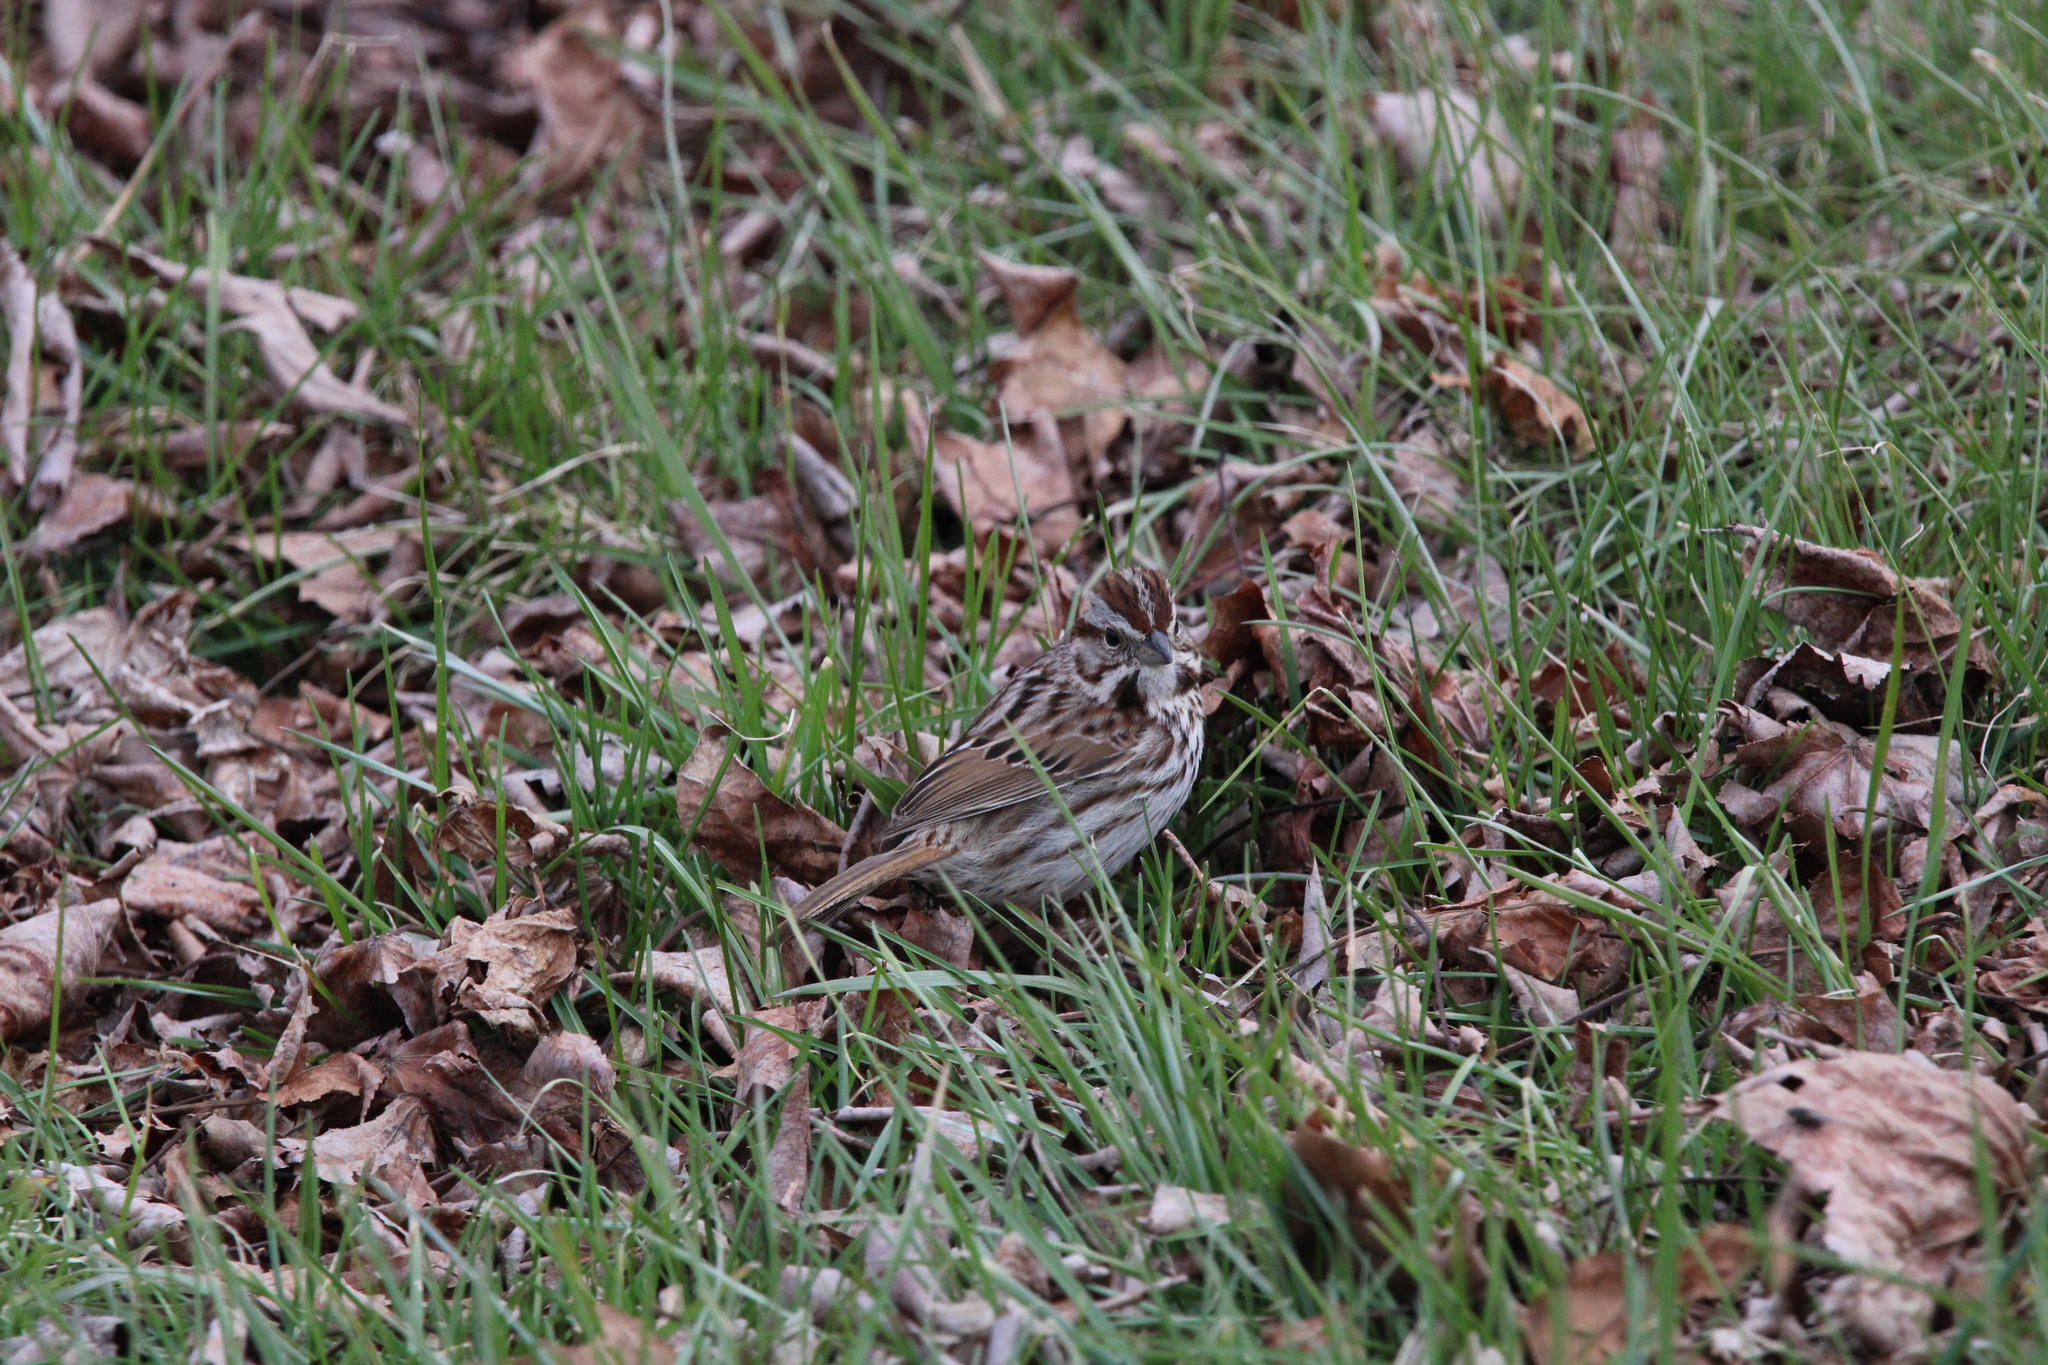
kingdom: Animalia
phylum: Chordata
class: Aves
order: Passeriformes
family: Passerellidae
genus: Melospiza
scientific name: Melospiza melodia
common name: Song sparrow
